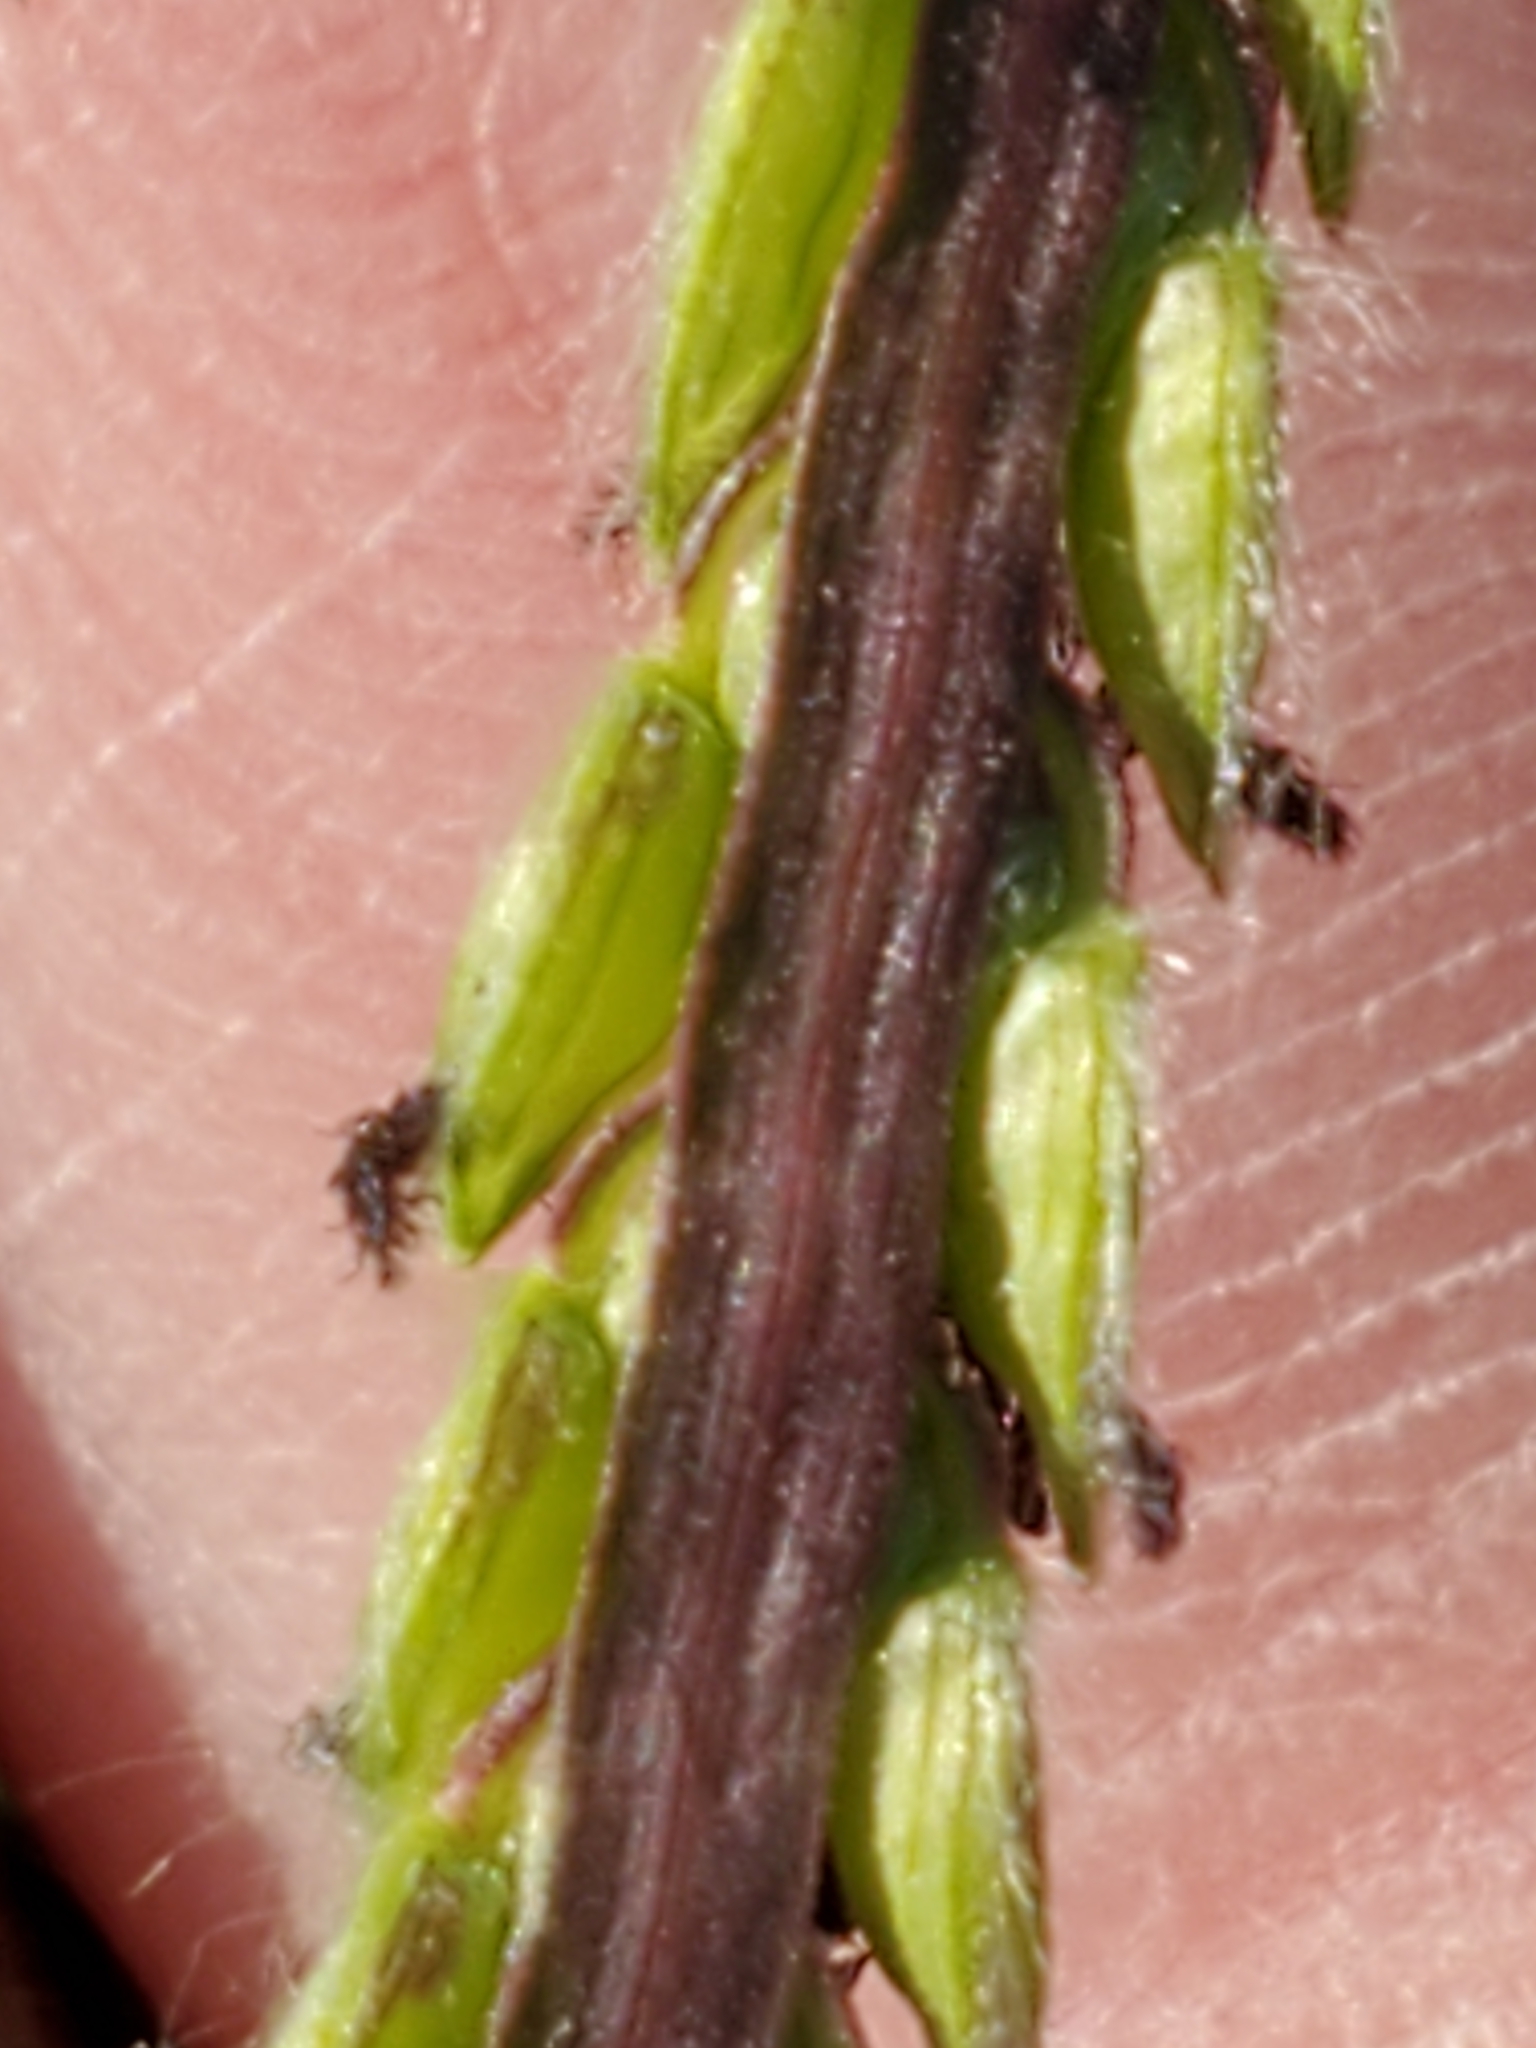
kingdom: Plantae
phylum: Tracheophyta
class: Liliopsida
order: Poales
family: Poaceae
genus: Paspalum
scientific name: Paspalum dilatatum
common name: Dallisgrass
